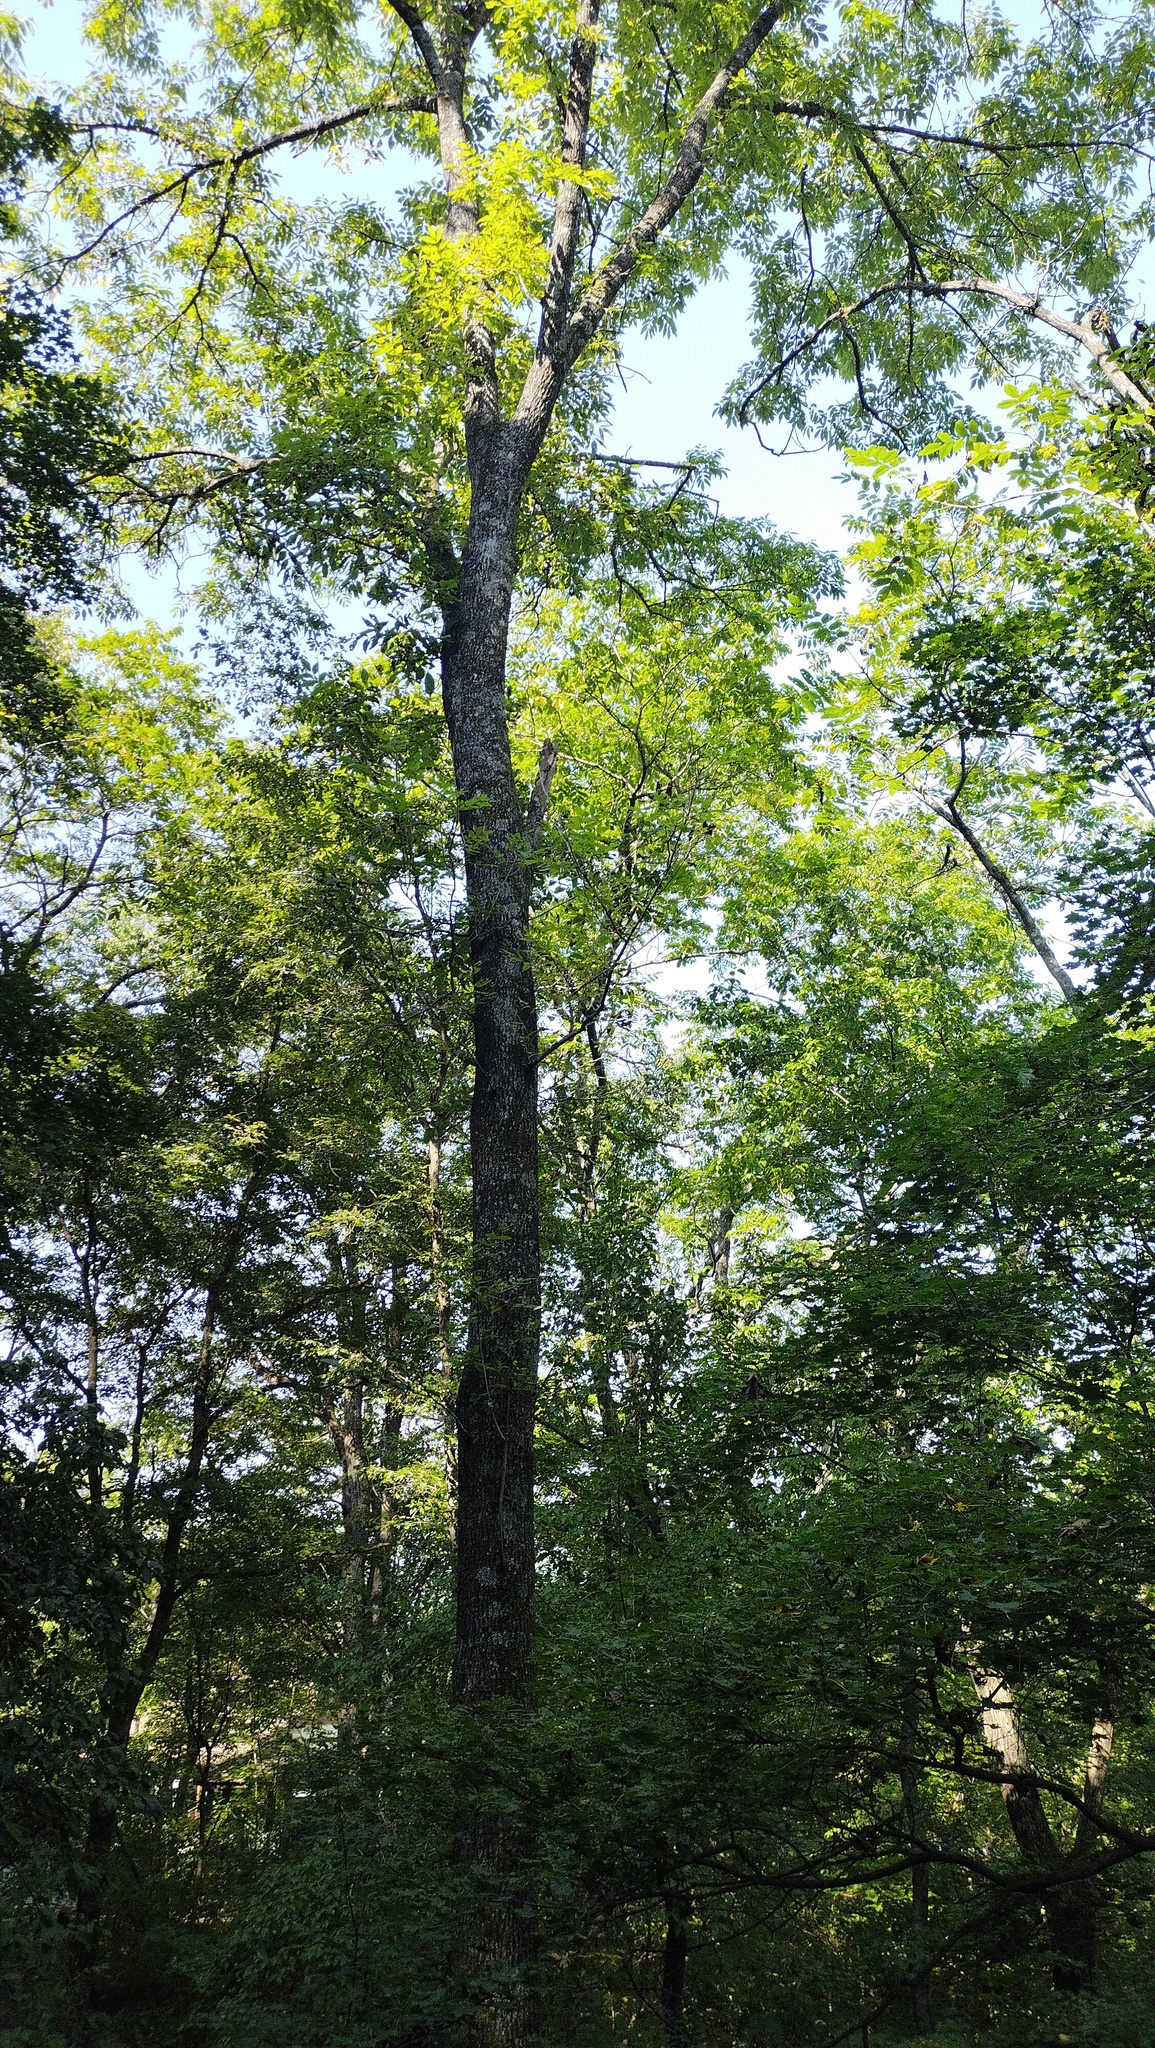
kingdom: Plantae
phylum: Tracheophyta
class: Magnoliopsida
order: Lamiales
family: Oleaceae
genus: Fraxinus
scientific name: Fraxinus mandshurica
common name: Manchurian ash
